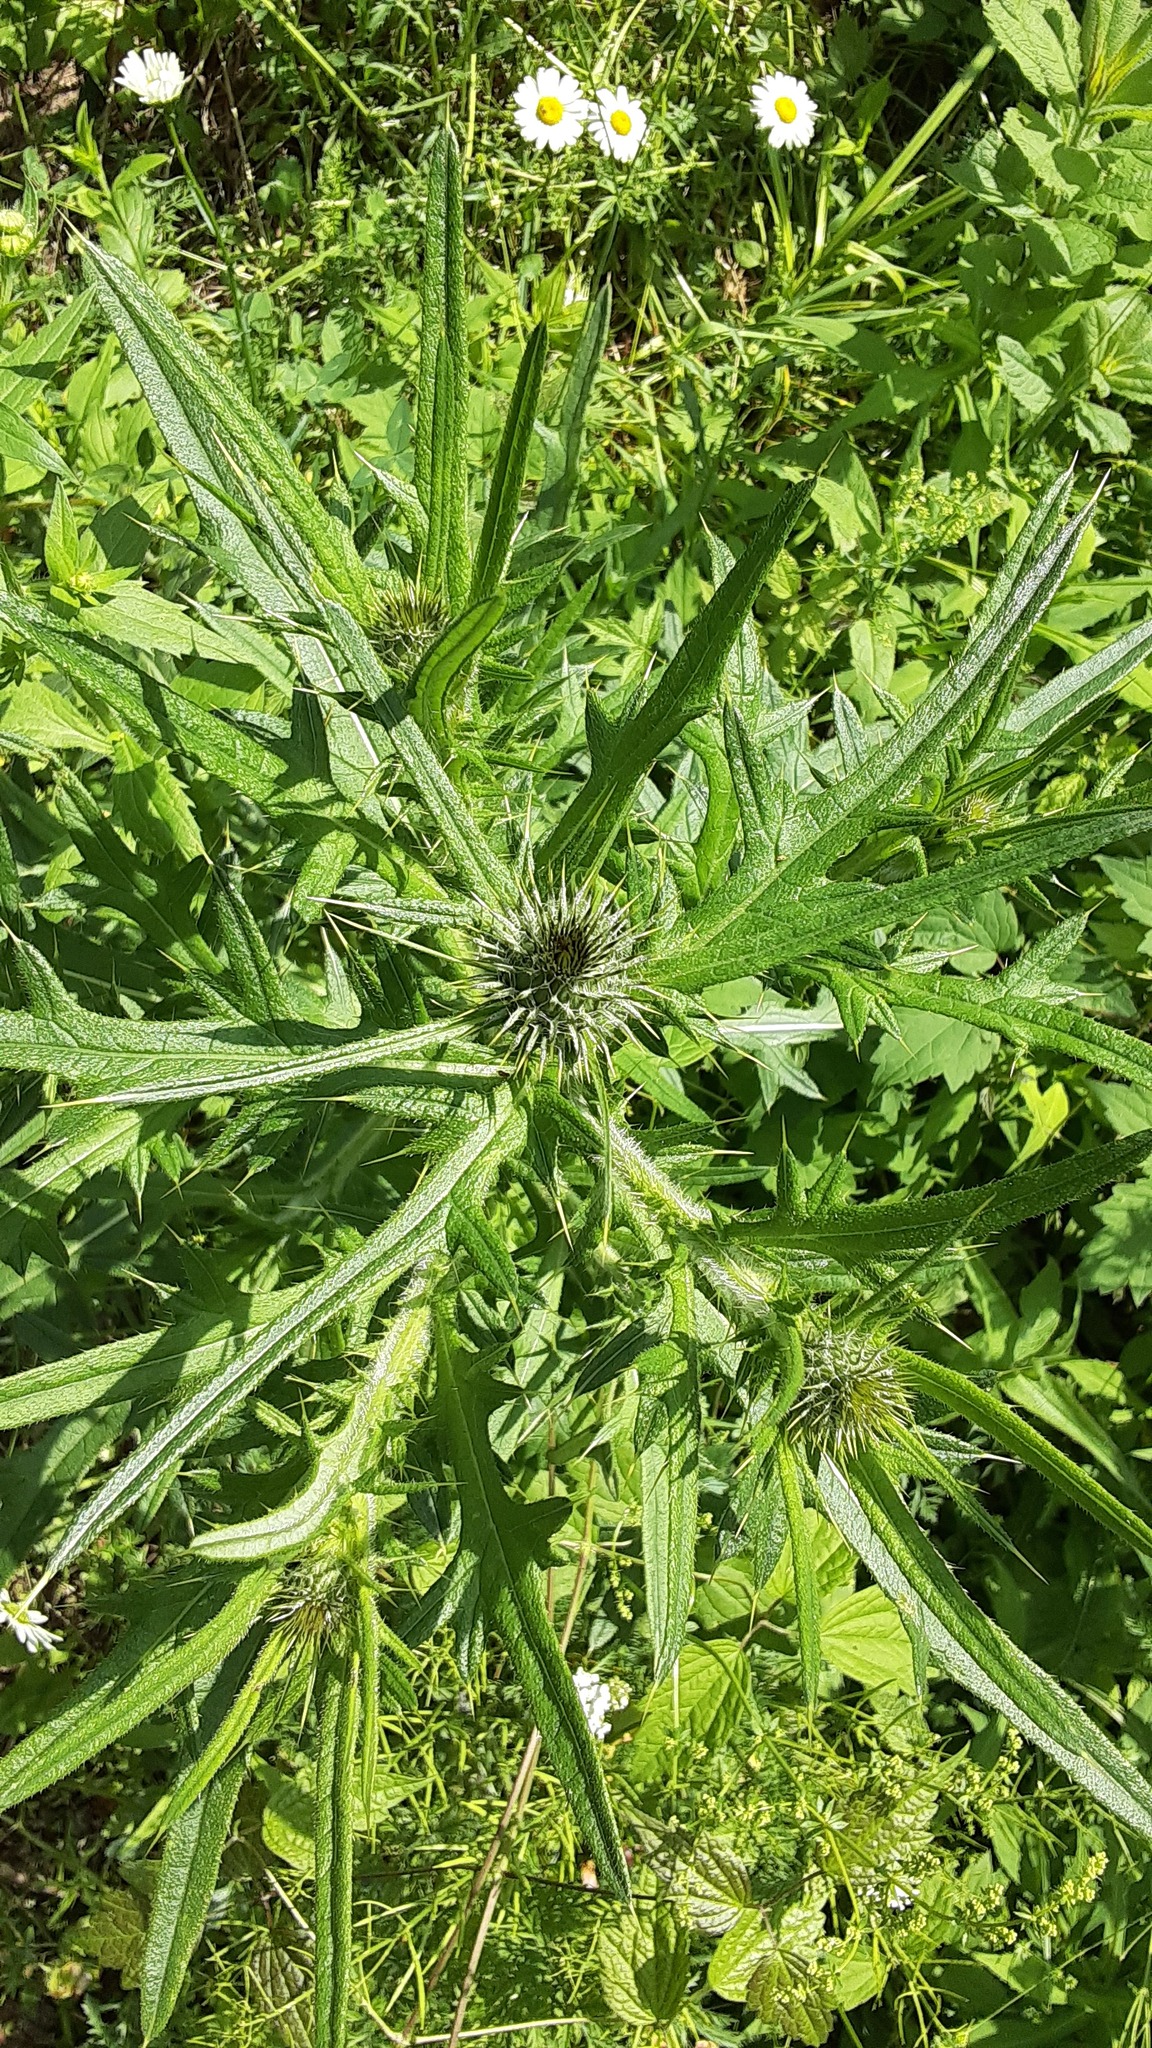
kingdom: Plantae
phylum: Tracheophyta
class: Magnoliopsida
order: Asterales
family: Asteraceae
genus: Cirsium
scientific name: Cirsium vulgare
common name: Bull thistle
